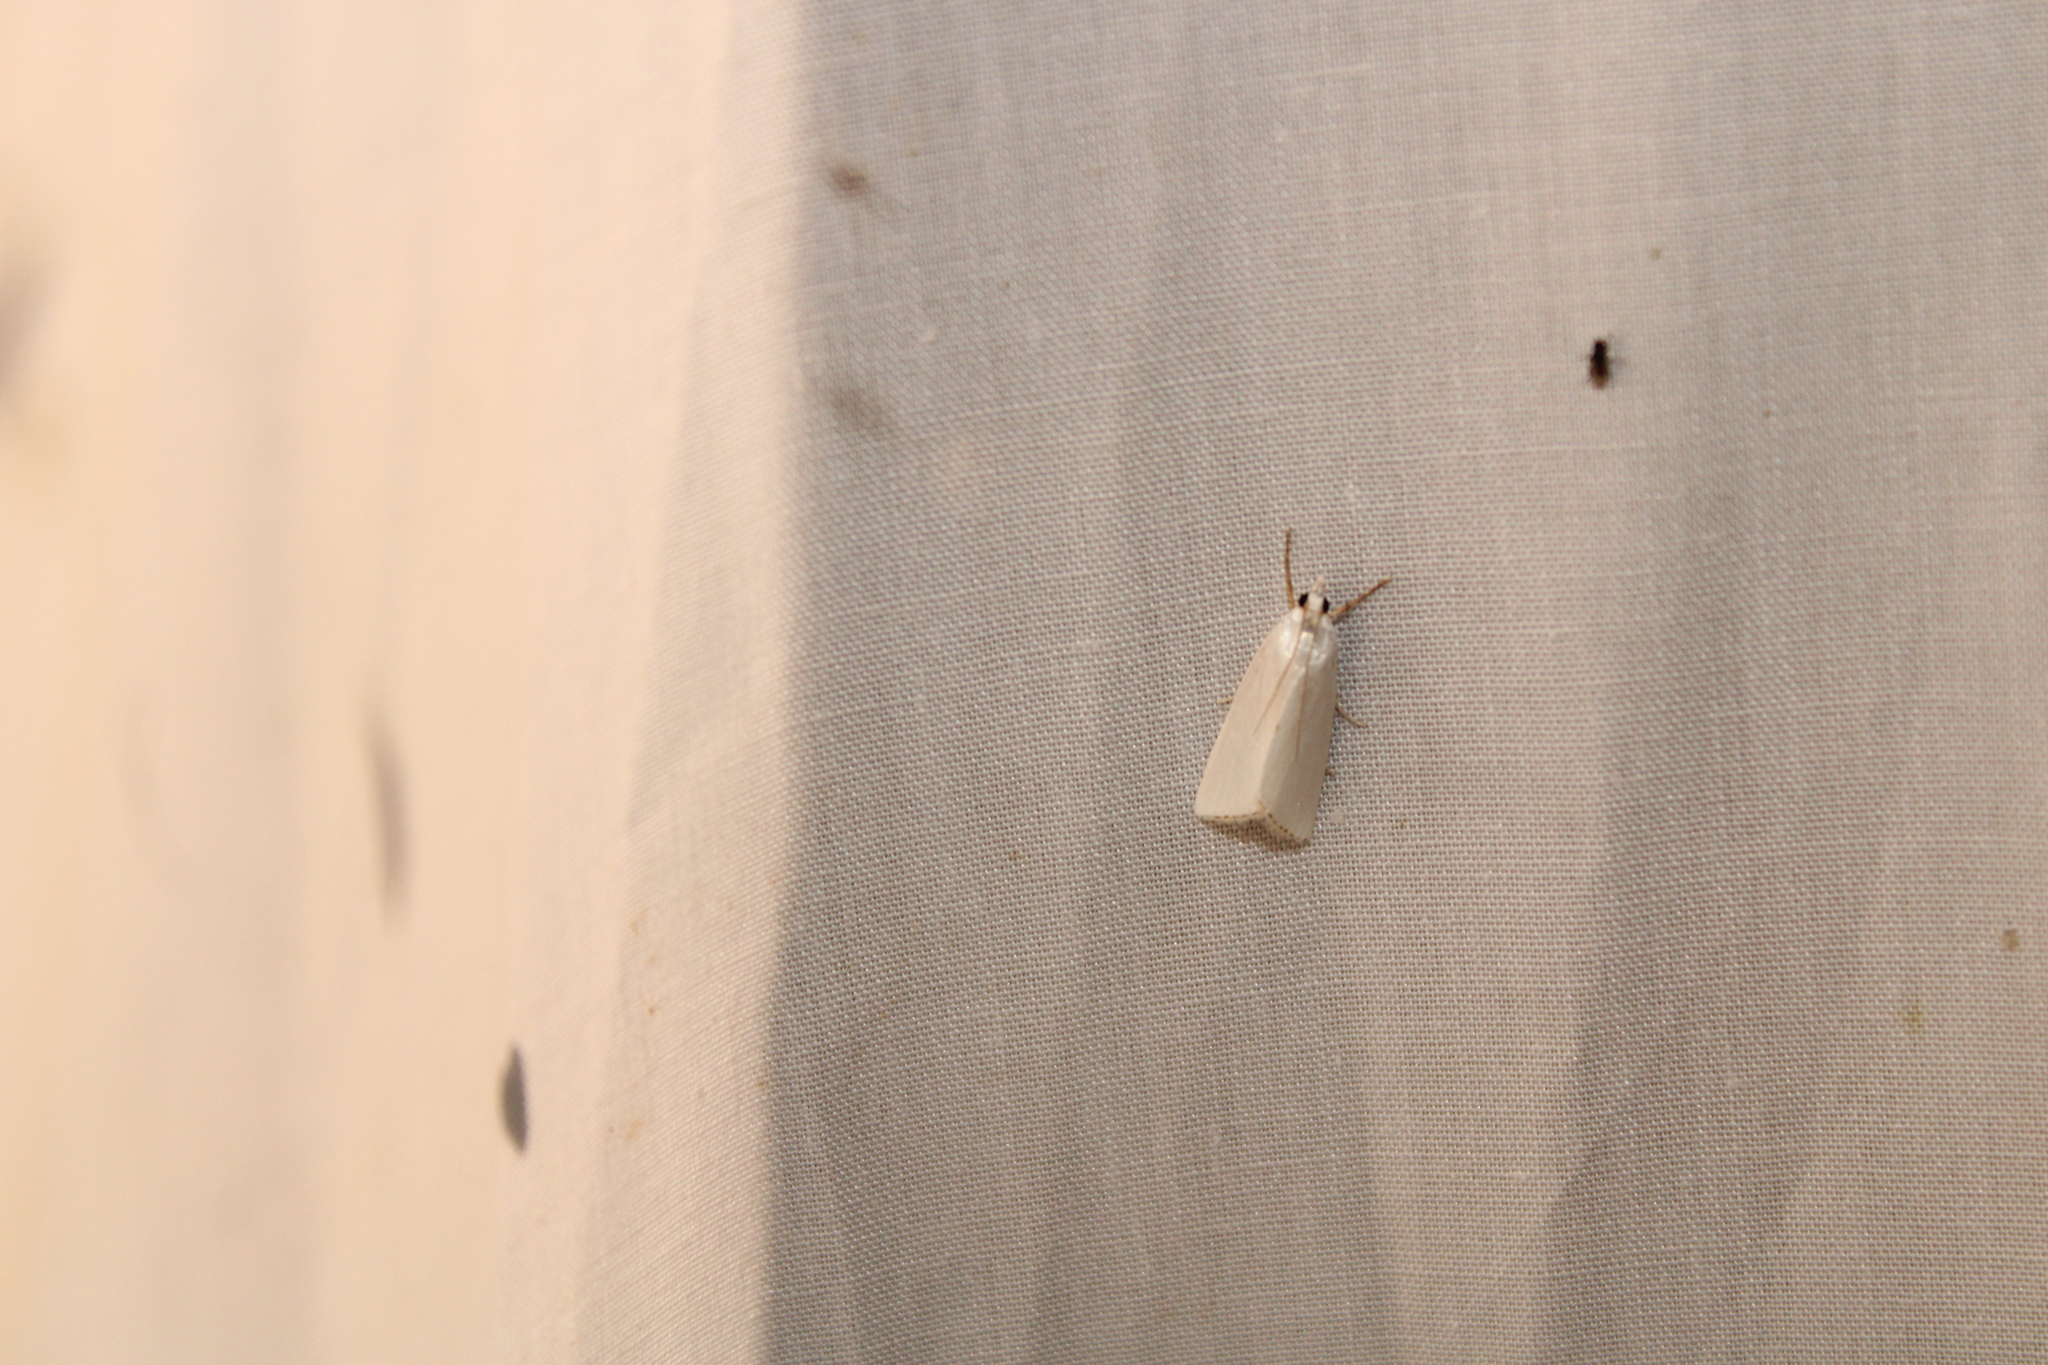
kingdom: Animalia
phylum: Arthropoda
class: Insecta
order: Lepidoptera
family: Crambidae
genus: Argyria
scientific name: Argyria nivalis
